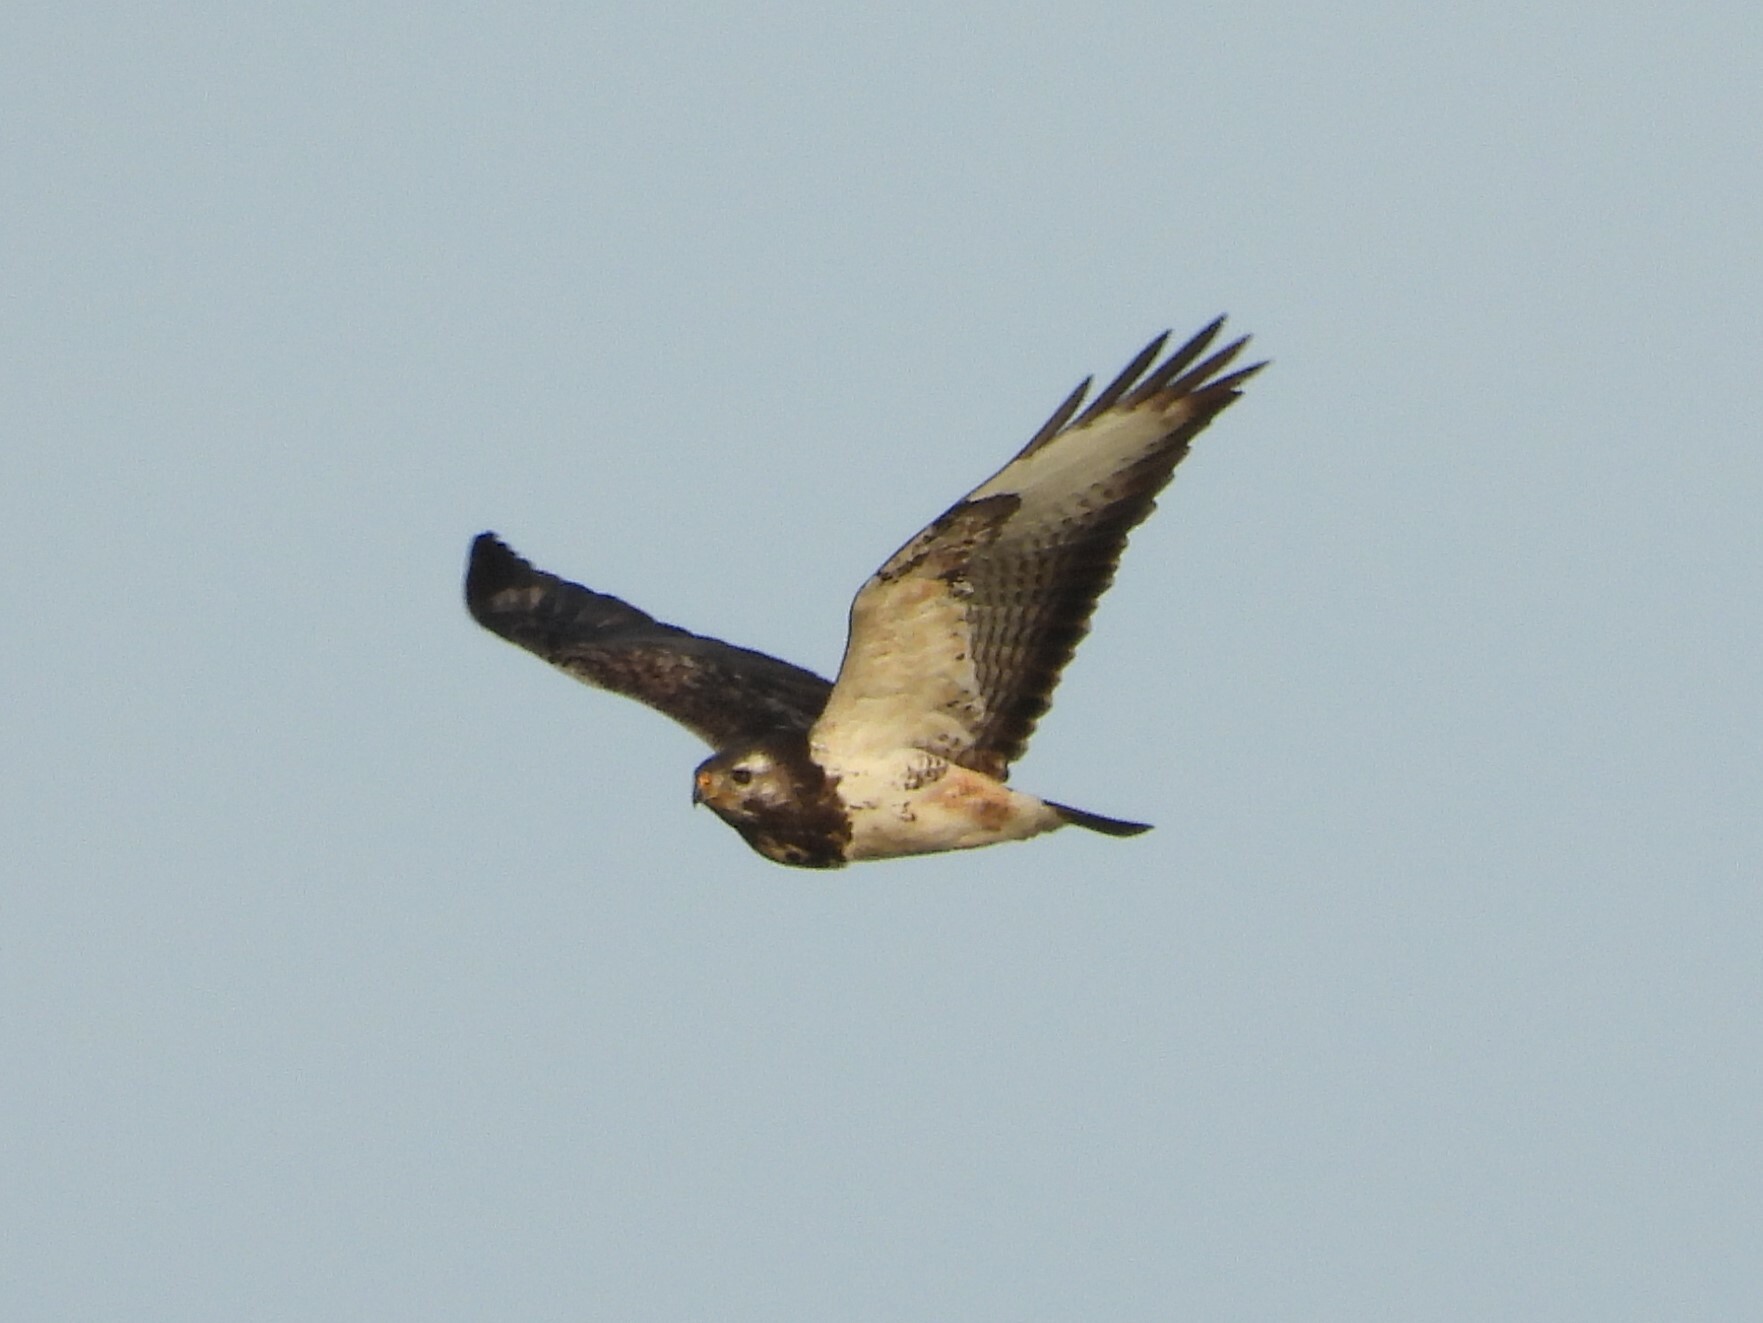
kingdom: Animalia
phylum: Chordata
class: Aves
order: Accipitriformes
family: Accipitridae
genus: Buteo
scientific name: Buteo buteo
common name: Common buzzard
